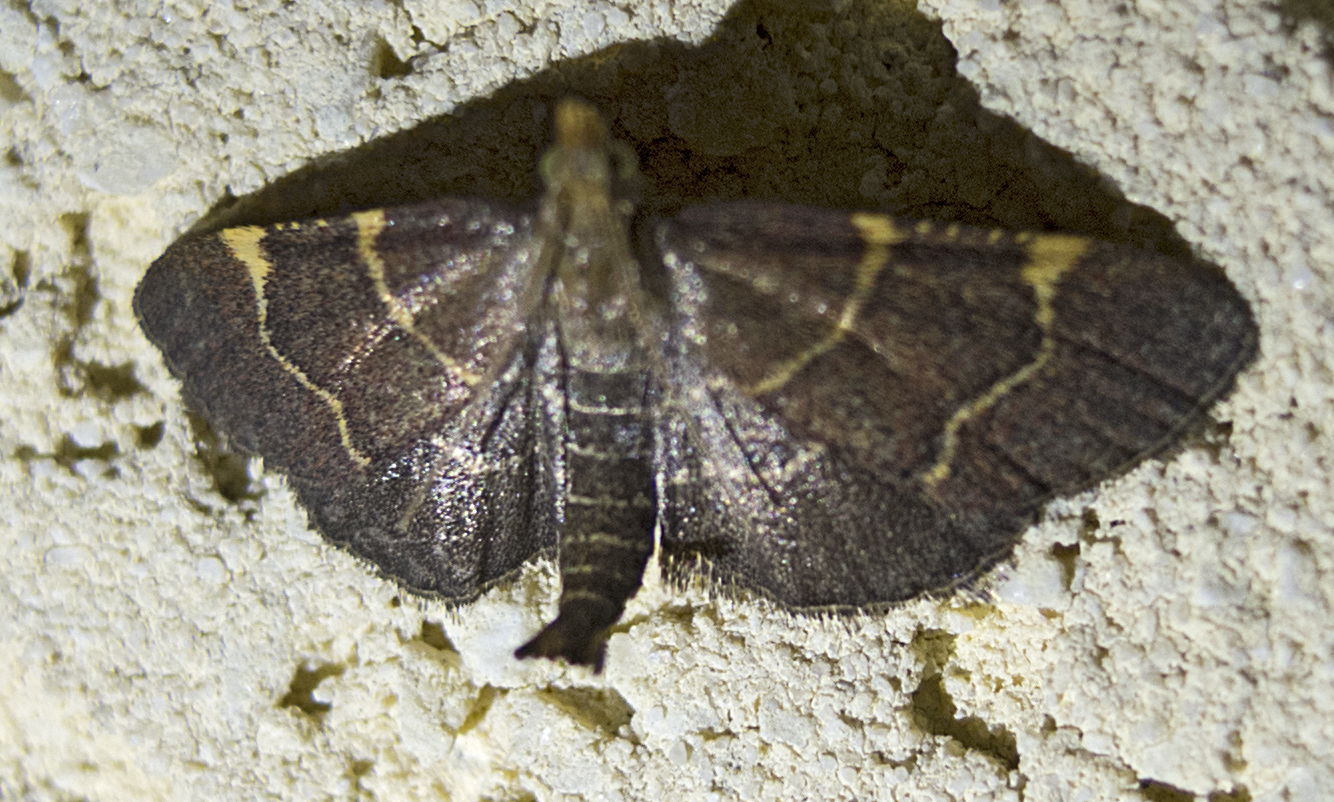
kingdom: Animalia
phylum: Arthropoda
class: Insecta
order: Lepidoptera
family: Pyralidae
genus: Hypsopygia
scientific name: Hypsopygia glaucinalis
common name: Double-striped tabby
